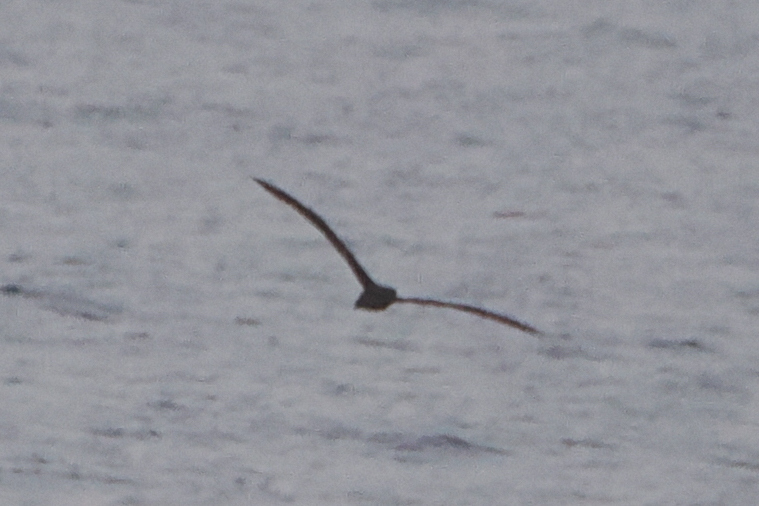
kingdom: Animalia
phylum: Chordata
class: Aves
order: Procellariiformes
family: Diomedeidae
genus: Phoebastria
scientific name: Phoebastria nigripes
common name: Black-footed albatross
